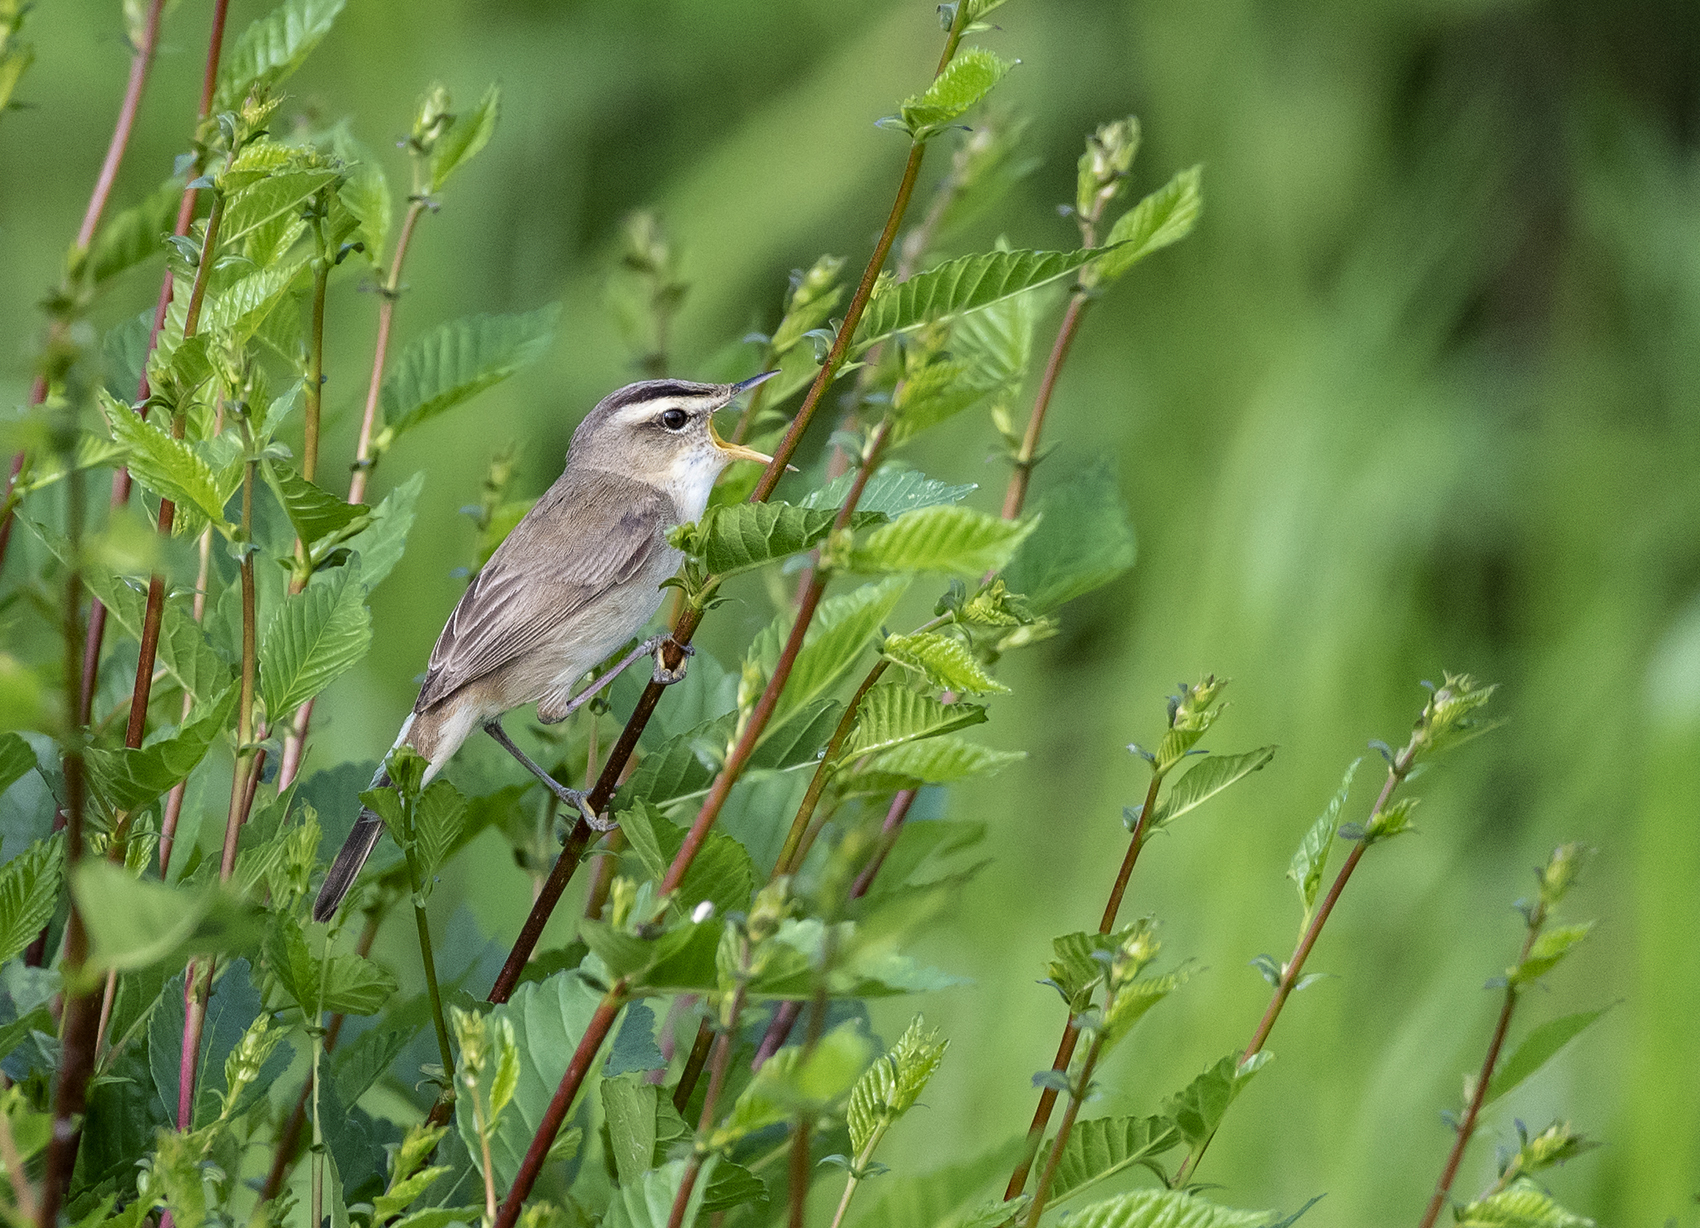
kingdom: Animalia
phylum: Chordata
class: Aves
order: Passeriformes
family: Acrocephalidae
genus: Acrocephalus
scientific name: Acrocephalus bistrigiceps
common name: Black-browed reed warbler
